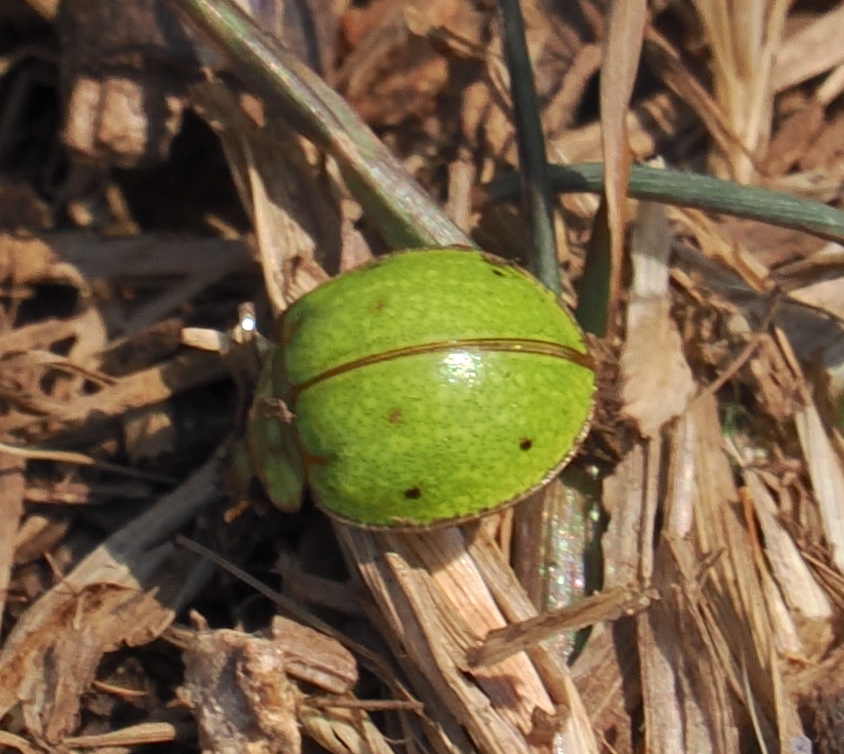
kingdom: Animalia
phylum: Arthropoda
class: Insecta
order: Coleoptera
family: Coccinellidae
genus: Calvia
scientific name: Calvia
